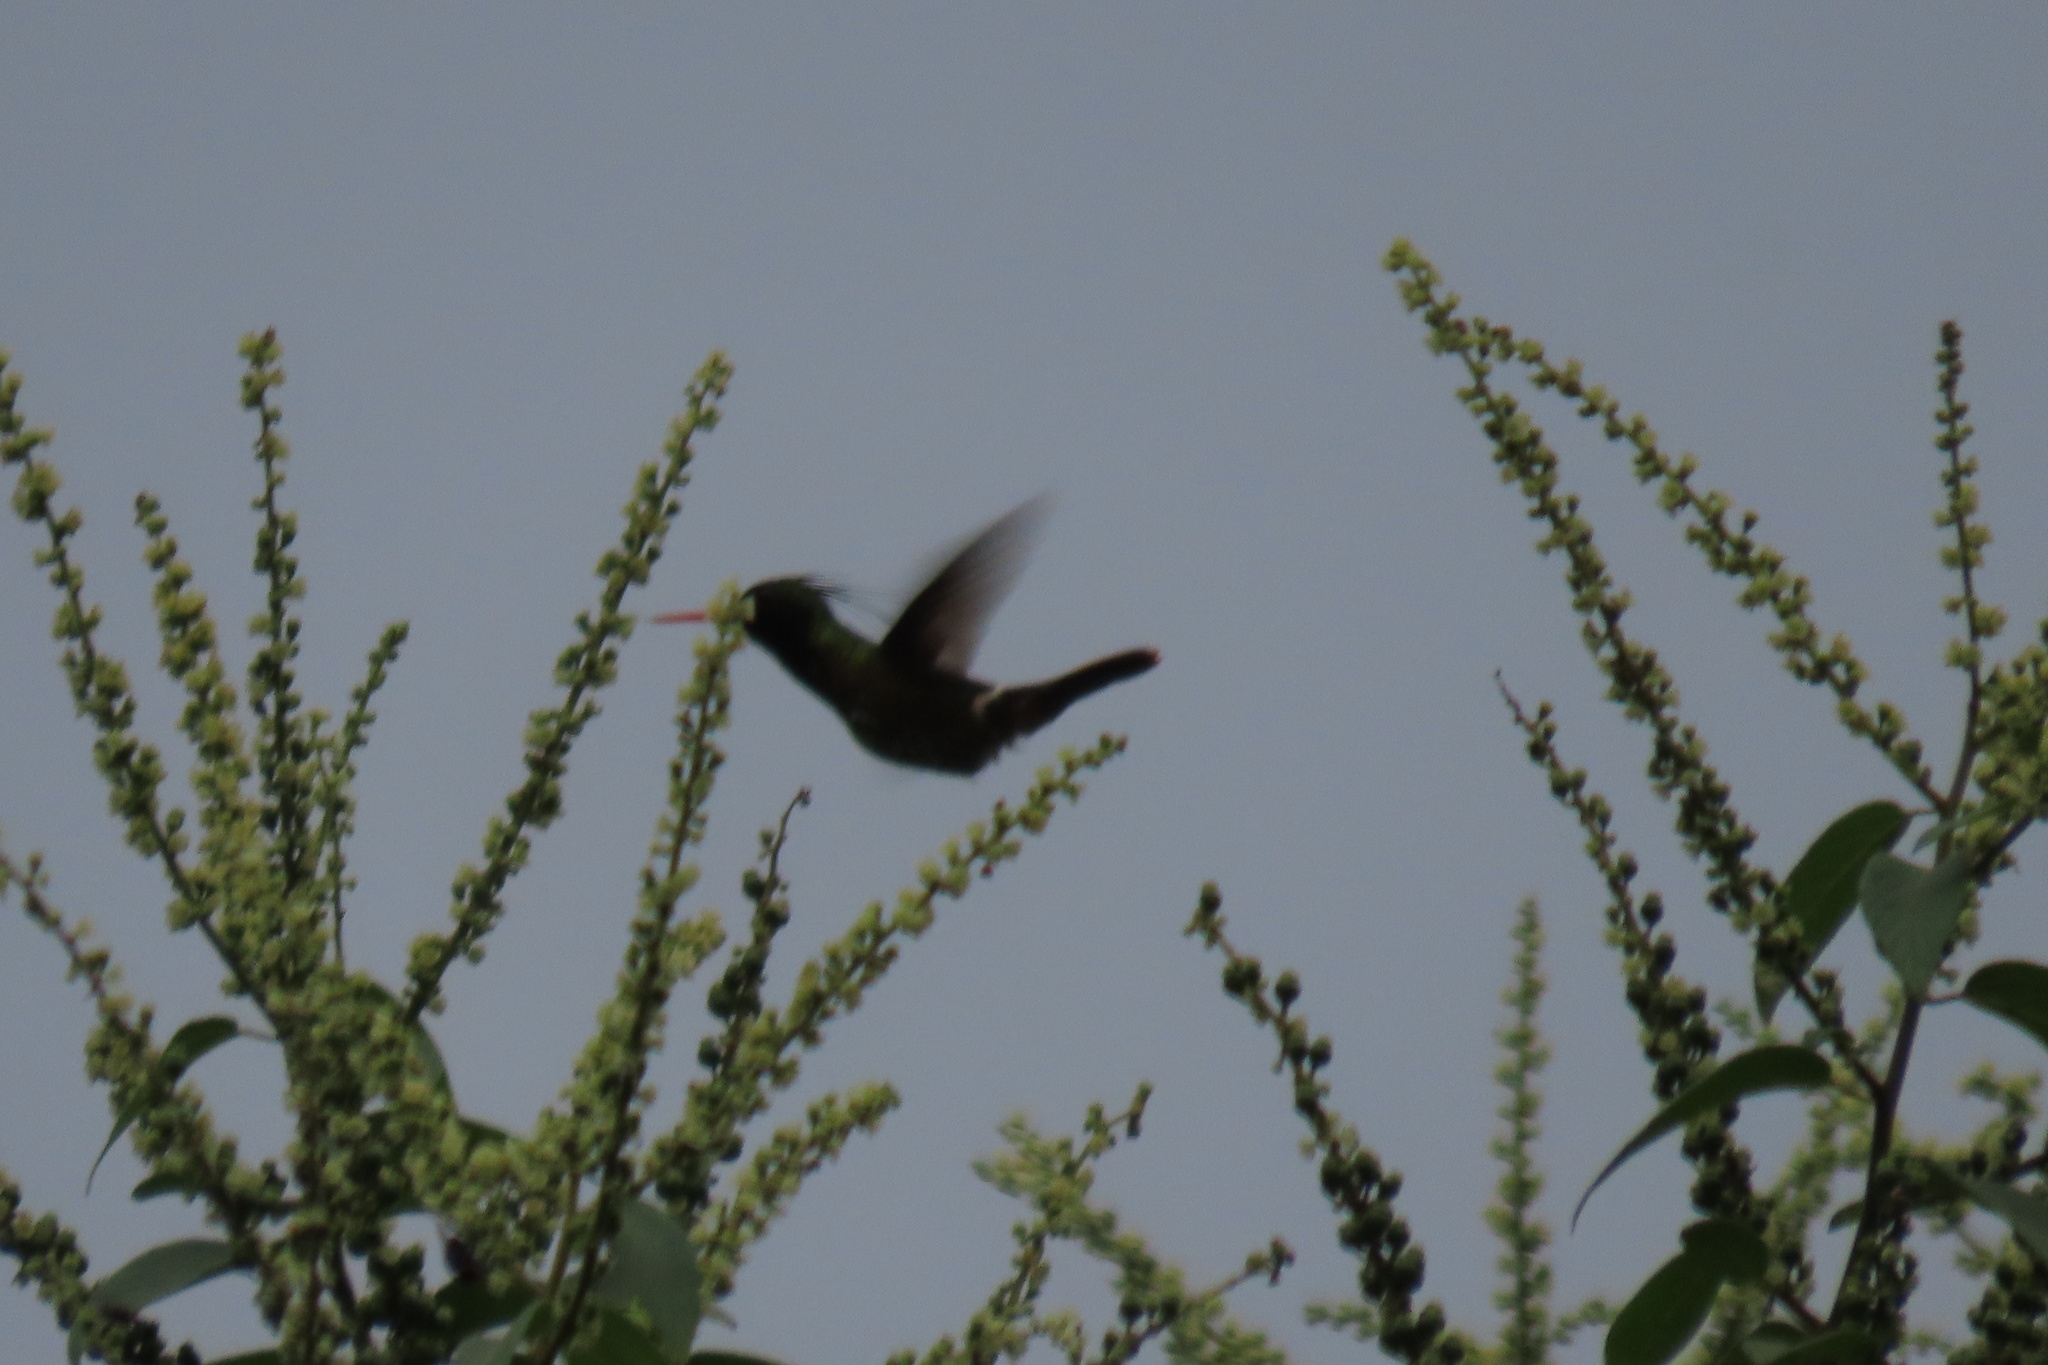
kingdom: Animalia
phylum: Chordata
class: Aves
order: Apodiformes
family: Trochilidae
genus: Lophornis
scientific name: Lophornis helenae
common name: Black-crested coquette
